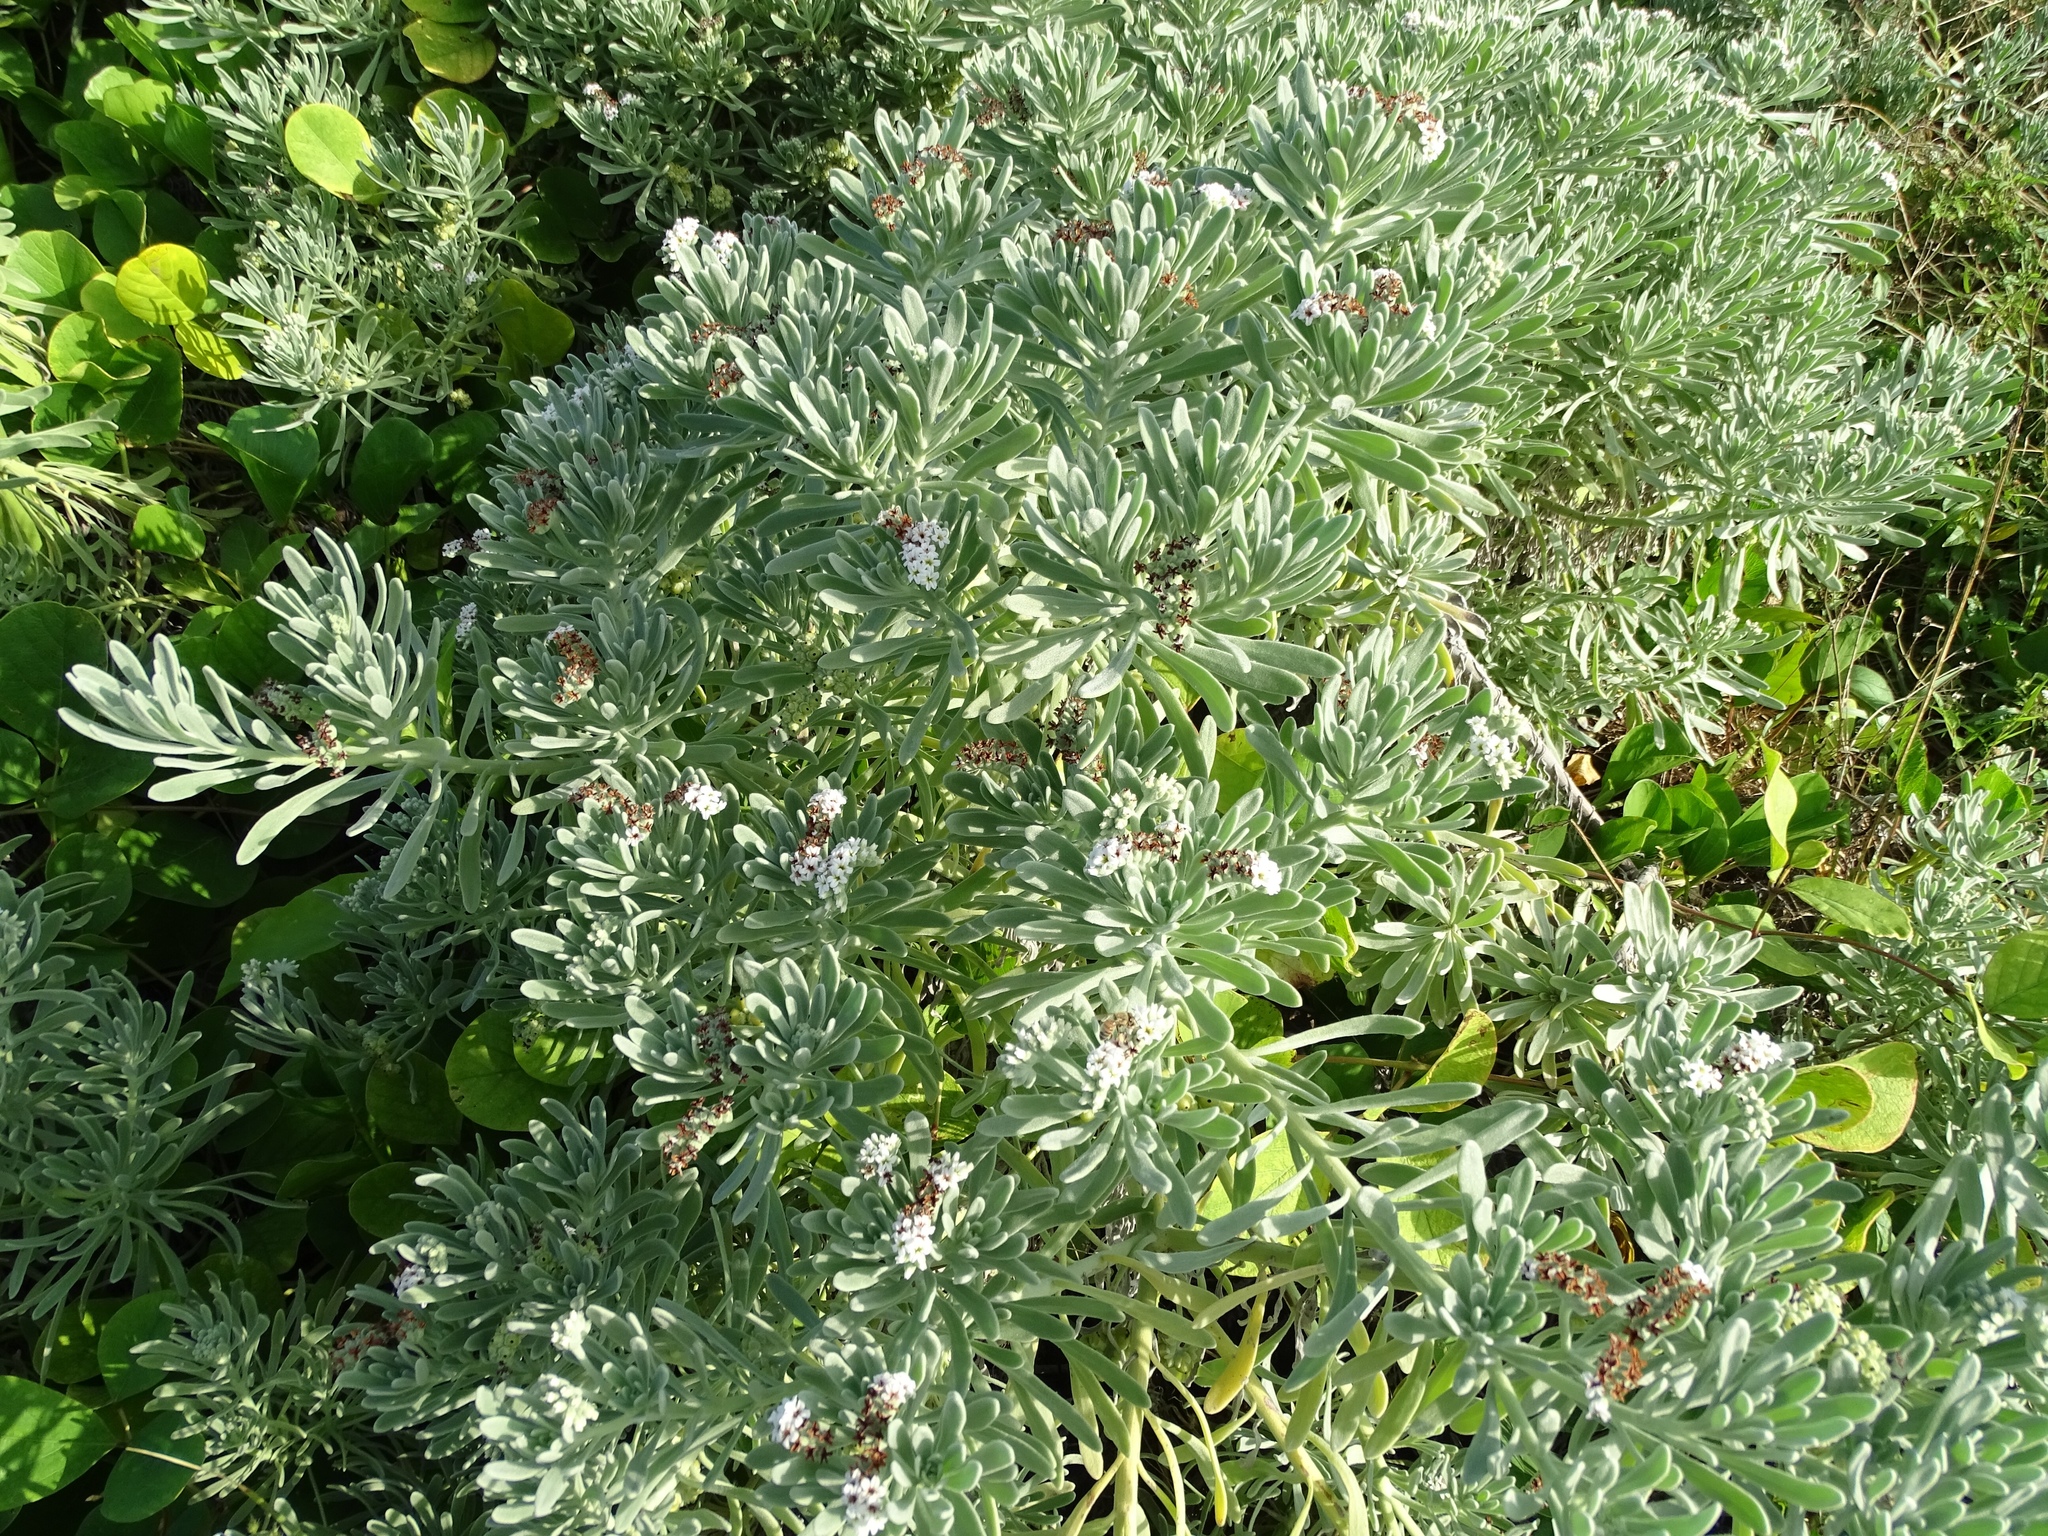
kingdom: Plantae
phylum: Tracheophyta
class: Magnoliopsida
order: Boraginales
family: Heliotropiaceae
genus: Heliotropium
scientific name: Heliotropium curassavicum
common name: Seaside heliotrope
